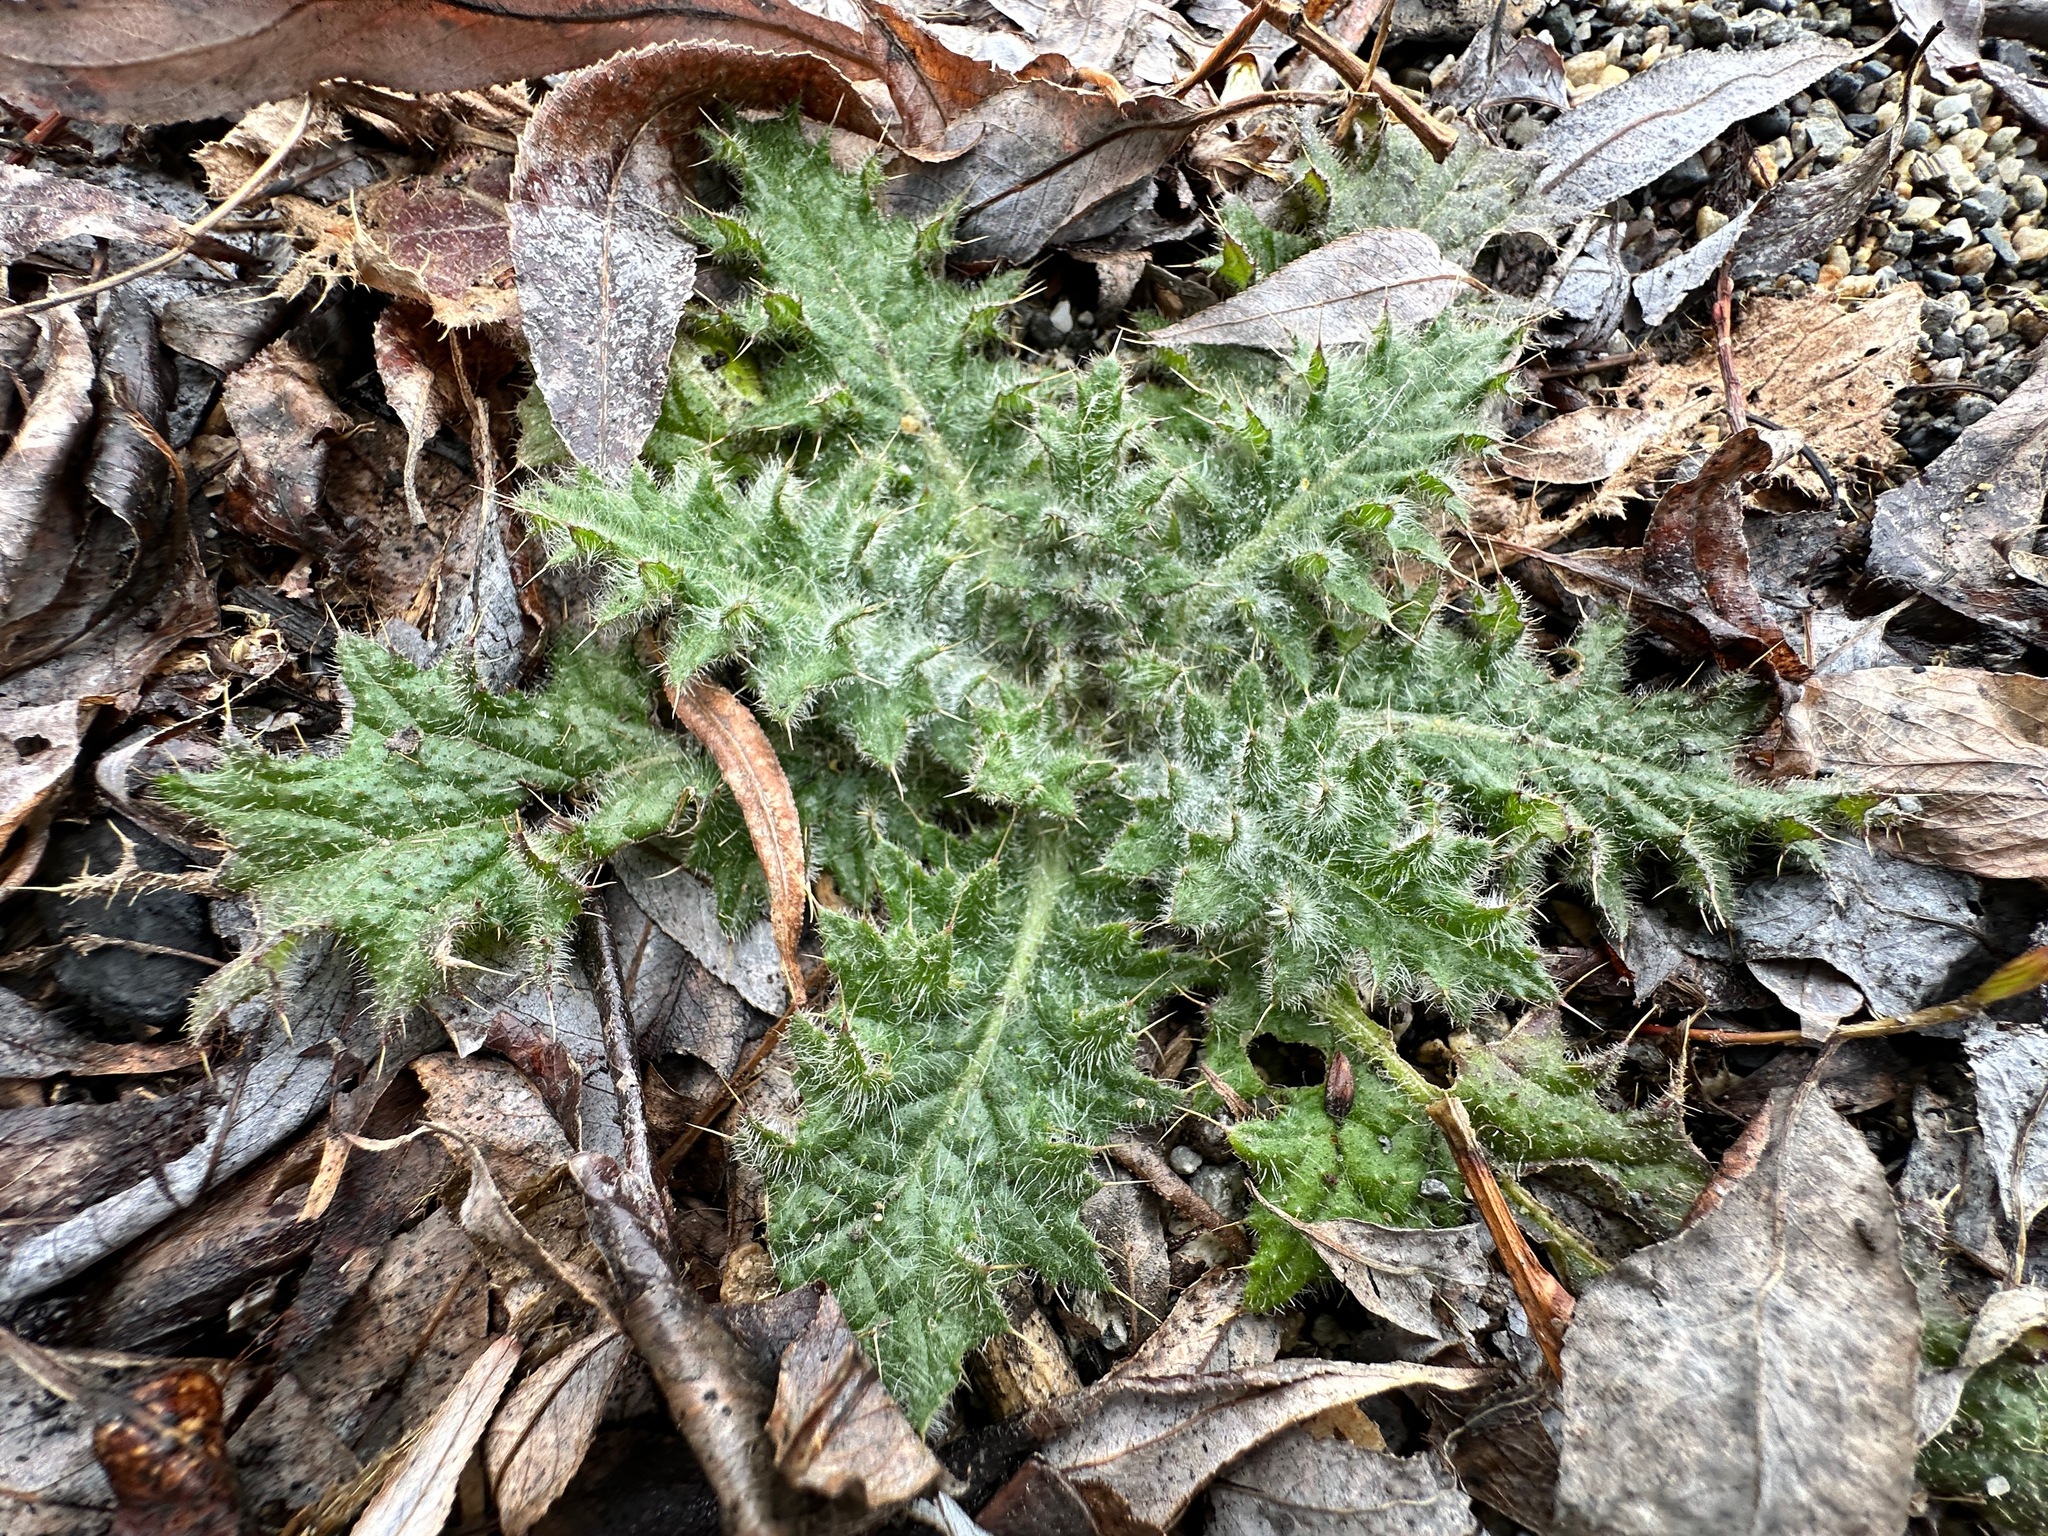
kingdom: Plantae
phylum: Tracheophyta
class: Magnoliopsida
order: Asterales
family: Asteraceae
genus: Cirsium
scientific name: Cirsium vulgare
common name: Bull thistle
